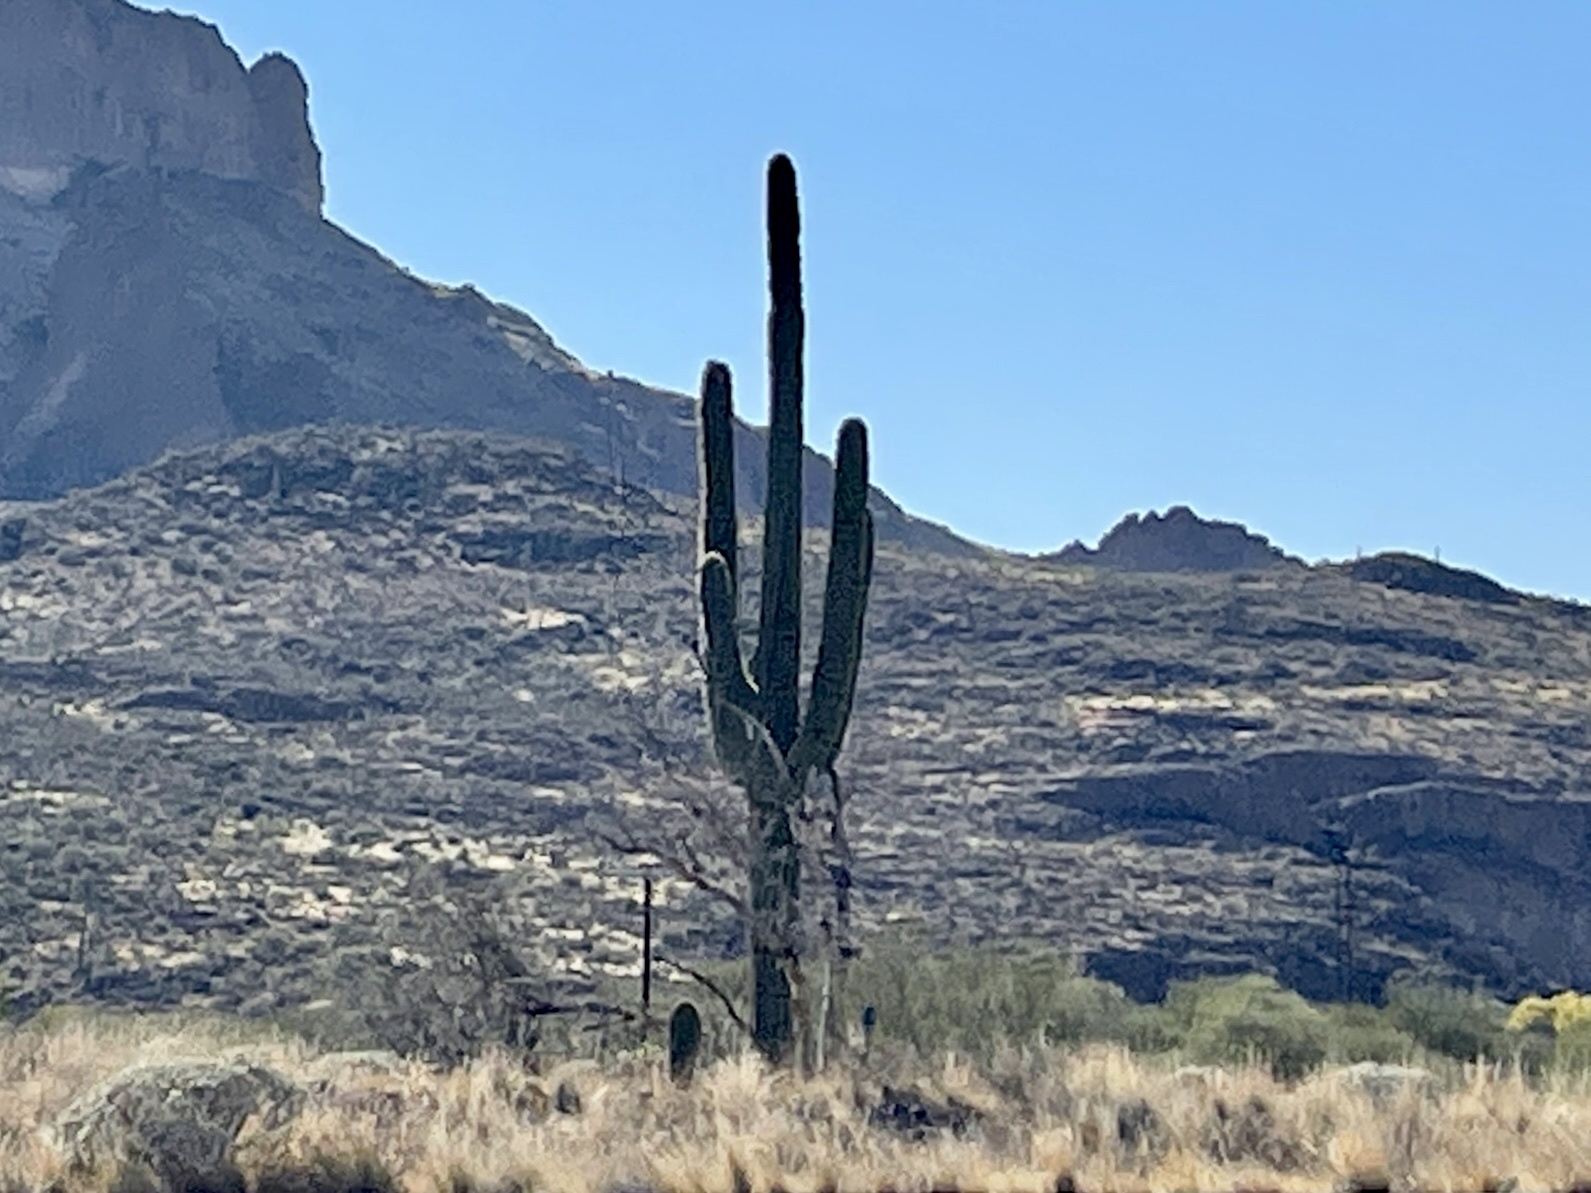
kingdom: Plantae
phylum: Tracheophyta
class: Magnoliopsida
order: Caryophyllales
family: Cactaceae
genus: Carnegiea
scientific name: Carnegiea gigantea
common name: Saguaro
